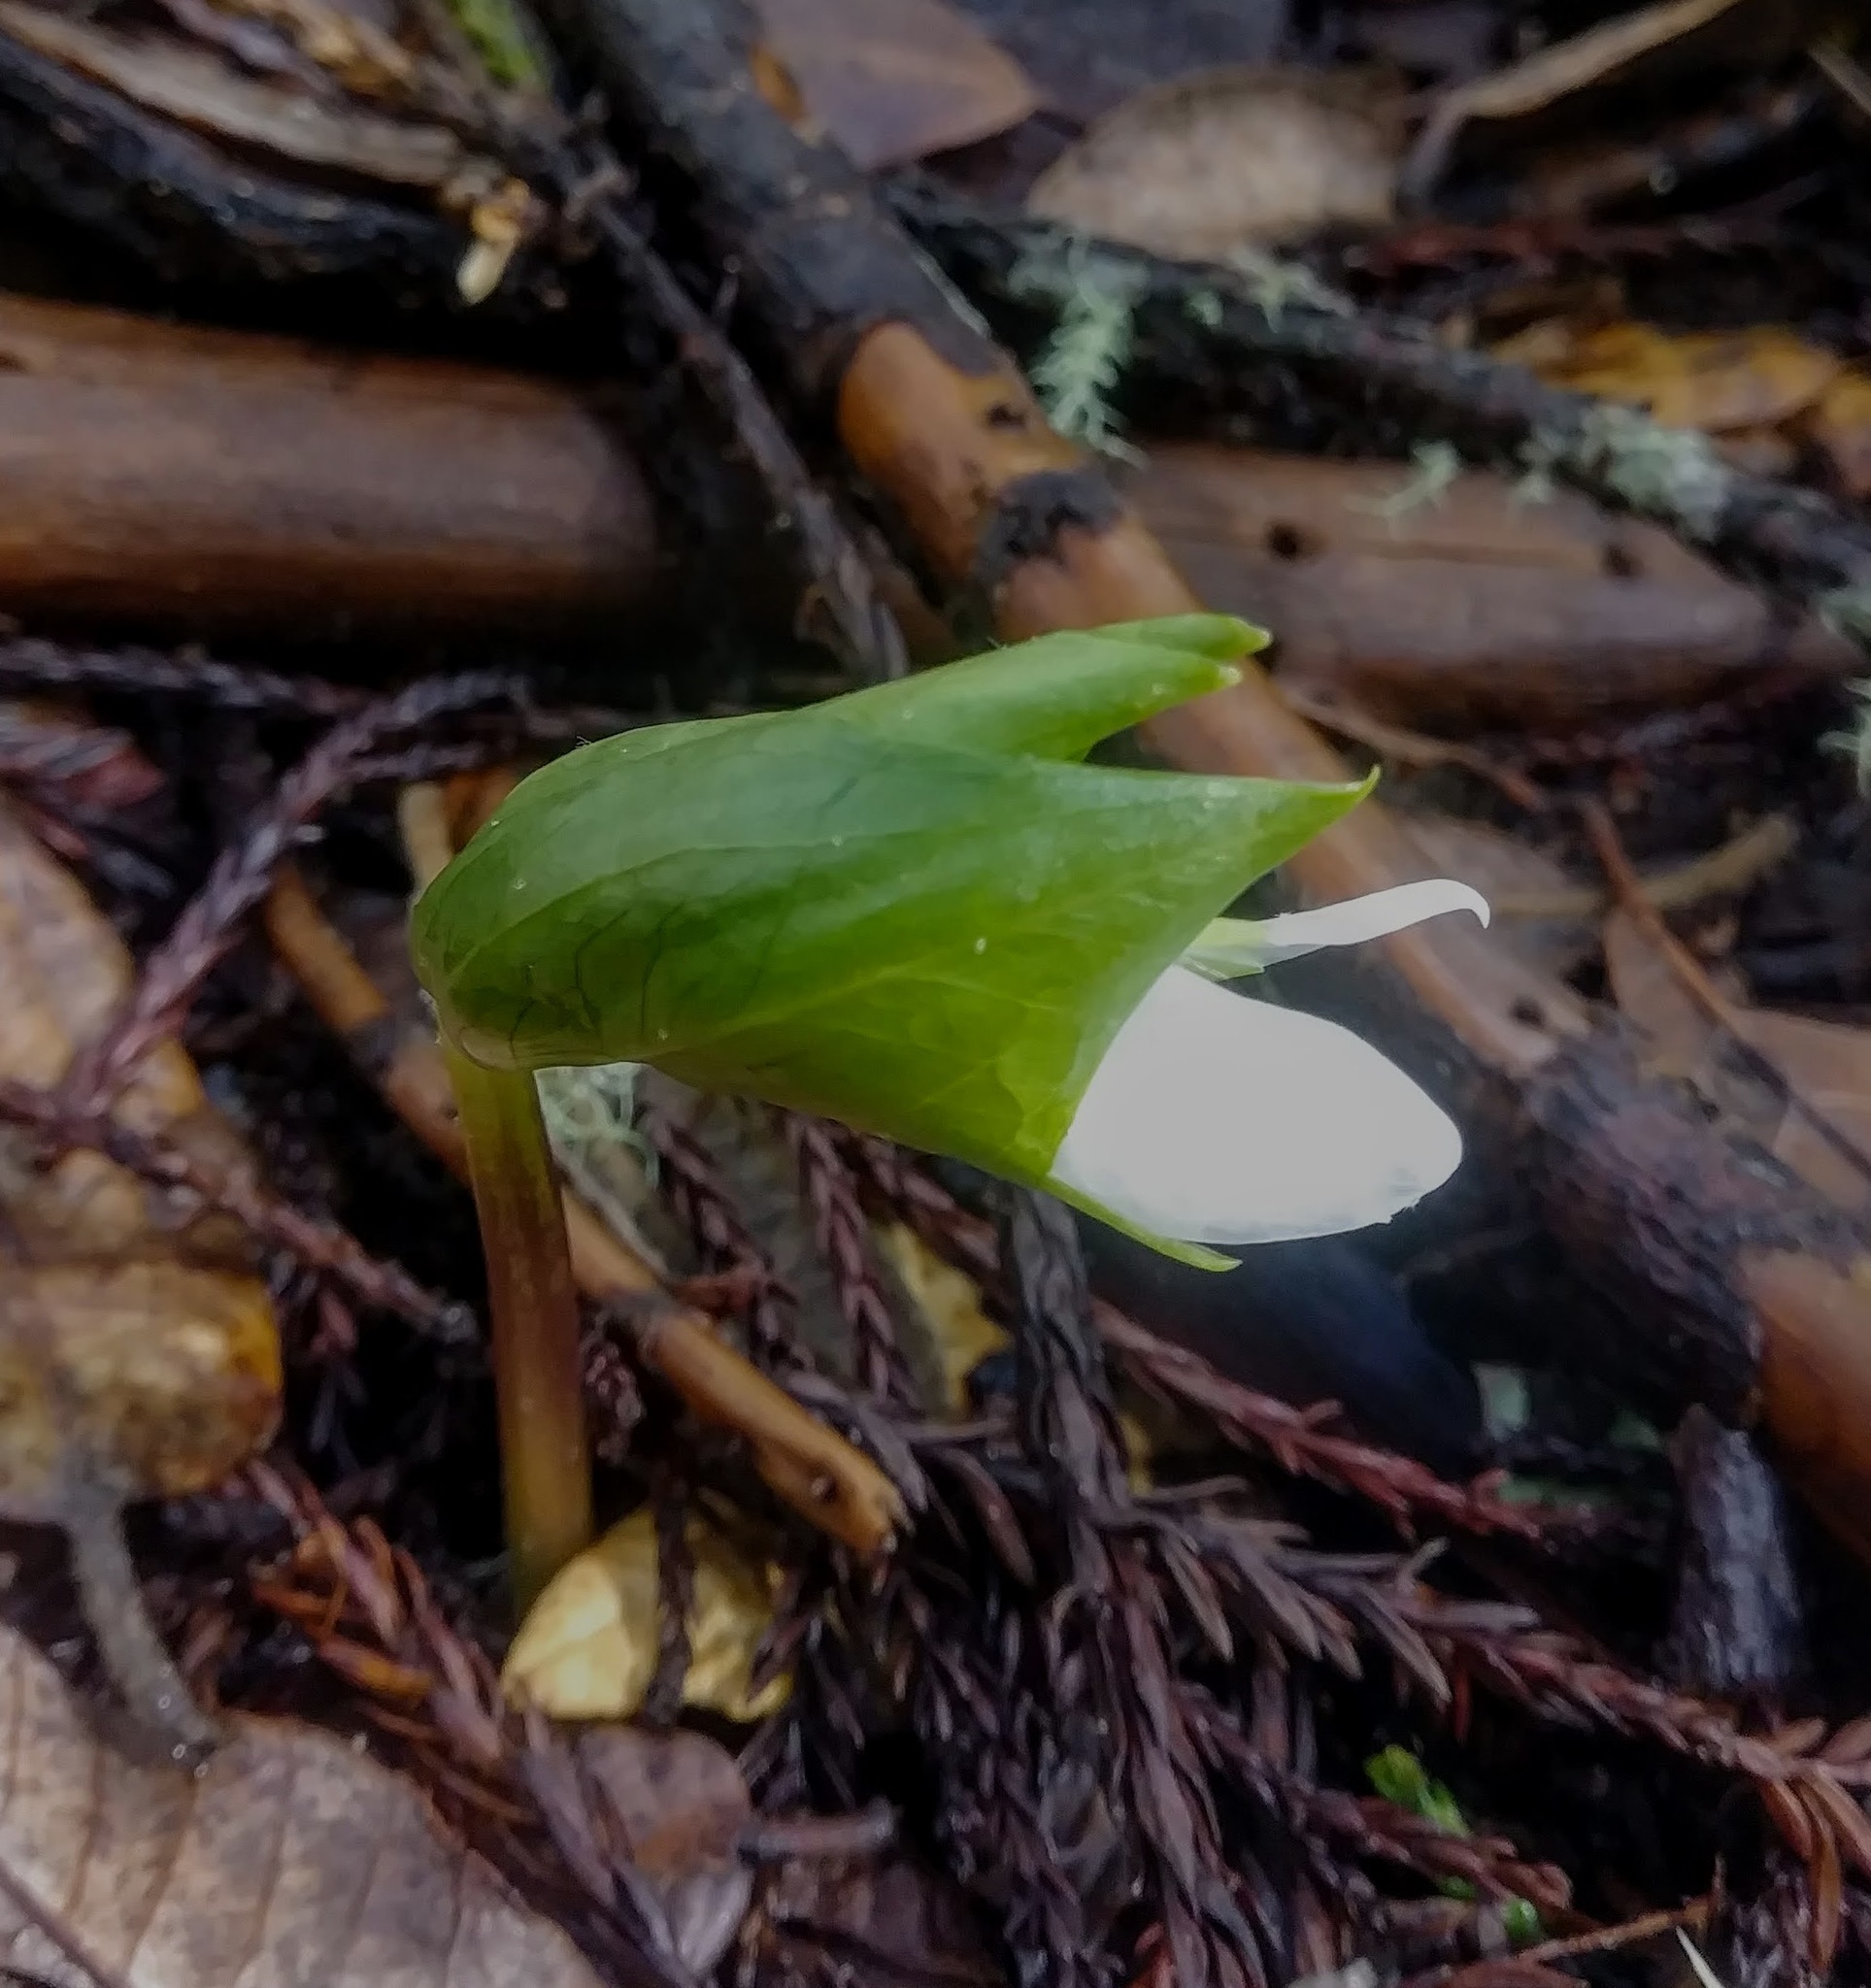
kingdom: Plantae
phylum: Tracheophyta
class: Liliopsida
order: Liliales
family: Melanthiaceae
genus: Trillium
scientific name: Trillium ovatum
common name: Pacific trillium
